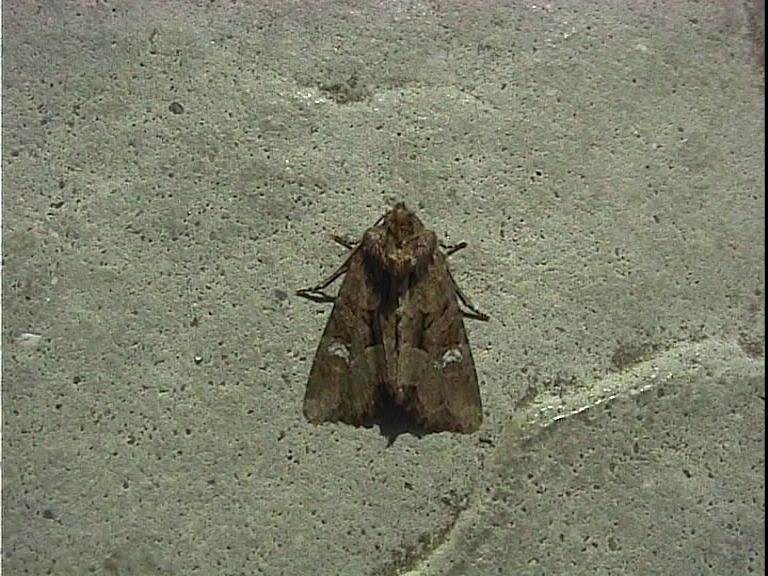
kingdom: Animalia
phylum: Arthropoda
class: Insecta
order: Lepidoptera
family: Noctuidae
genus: Mesapamea
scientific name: Mesapamea
